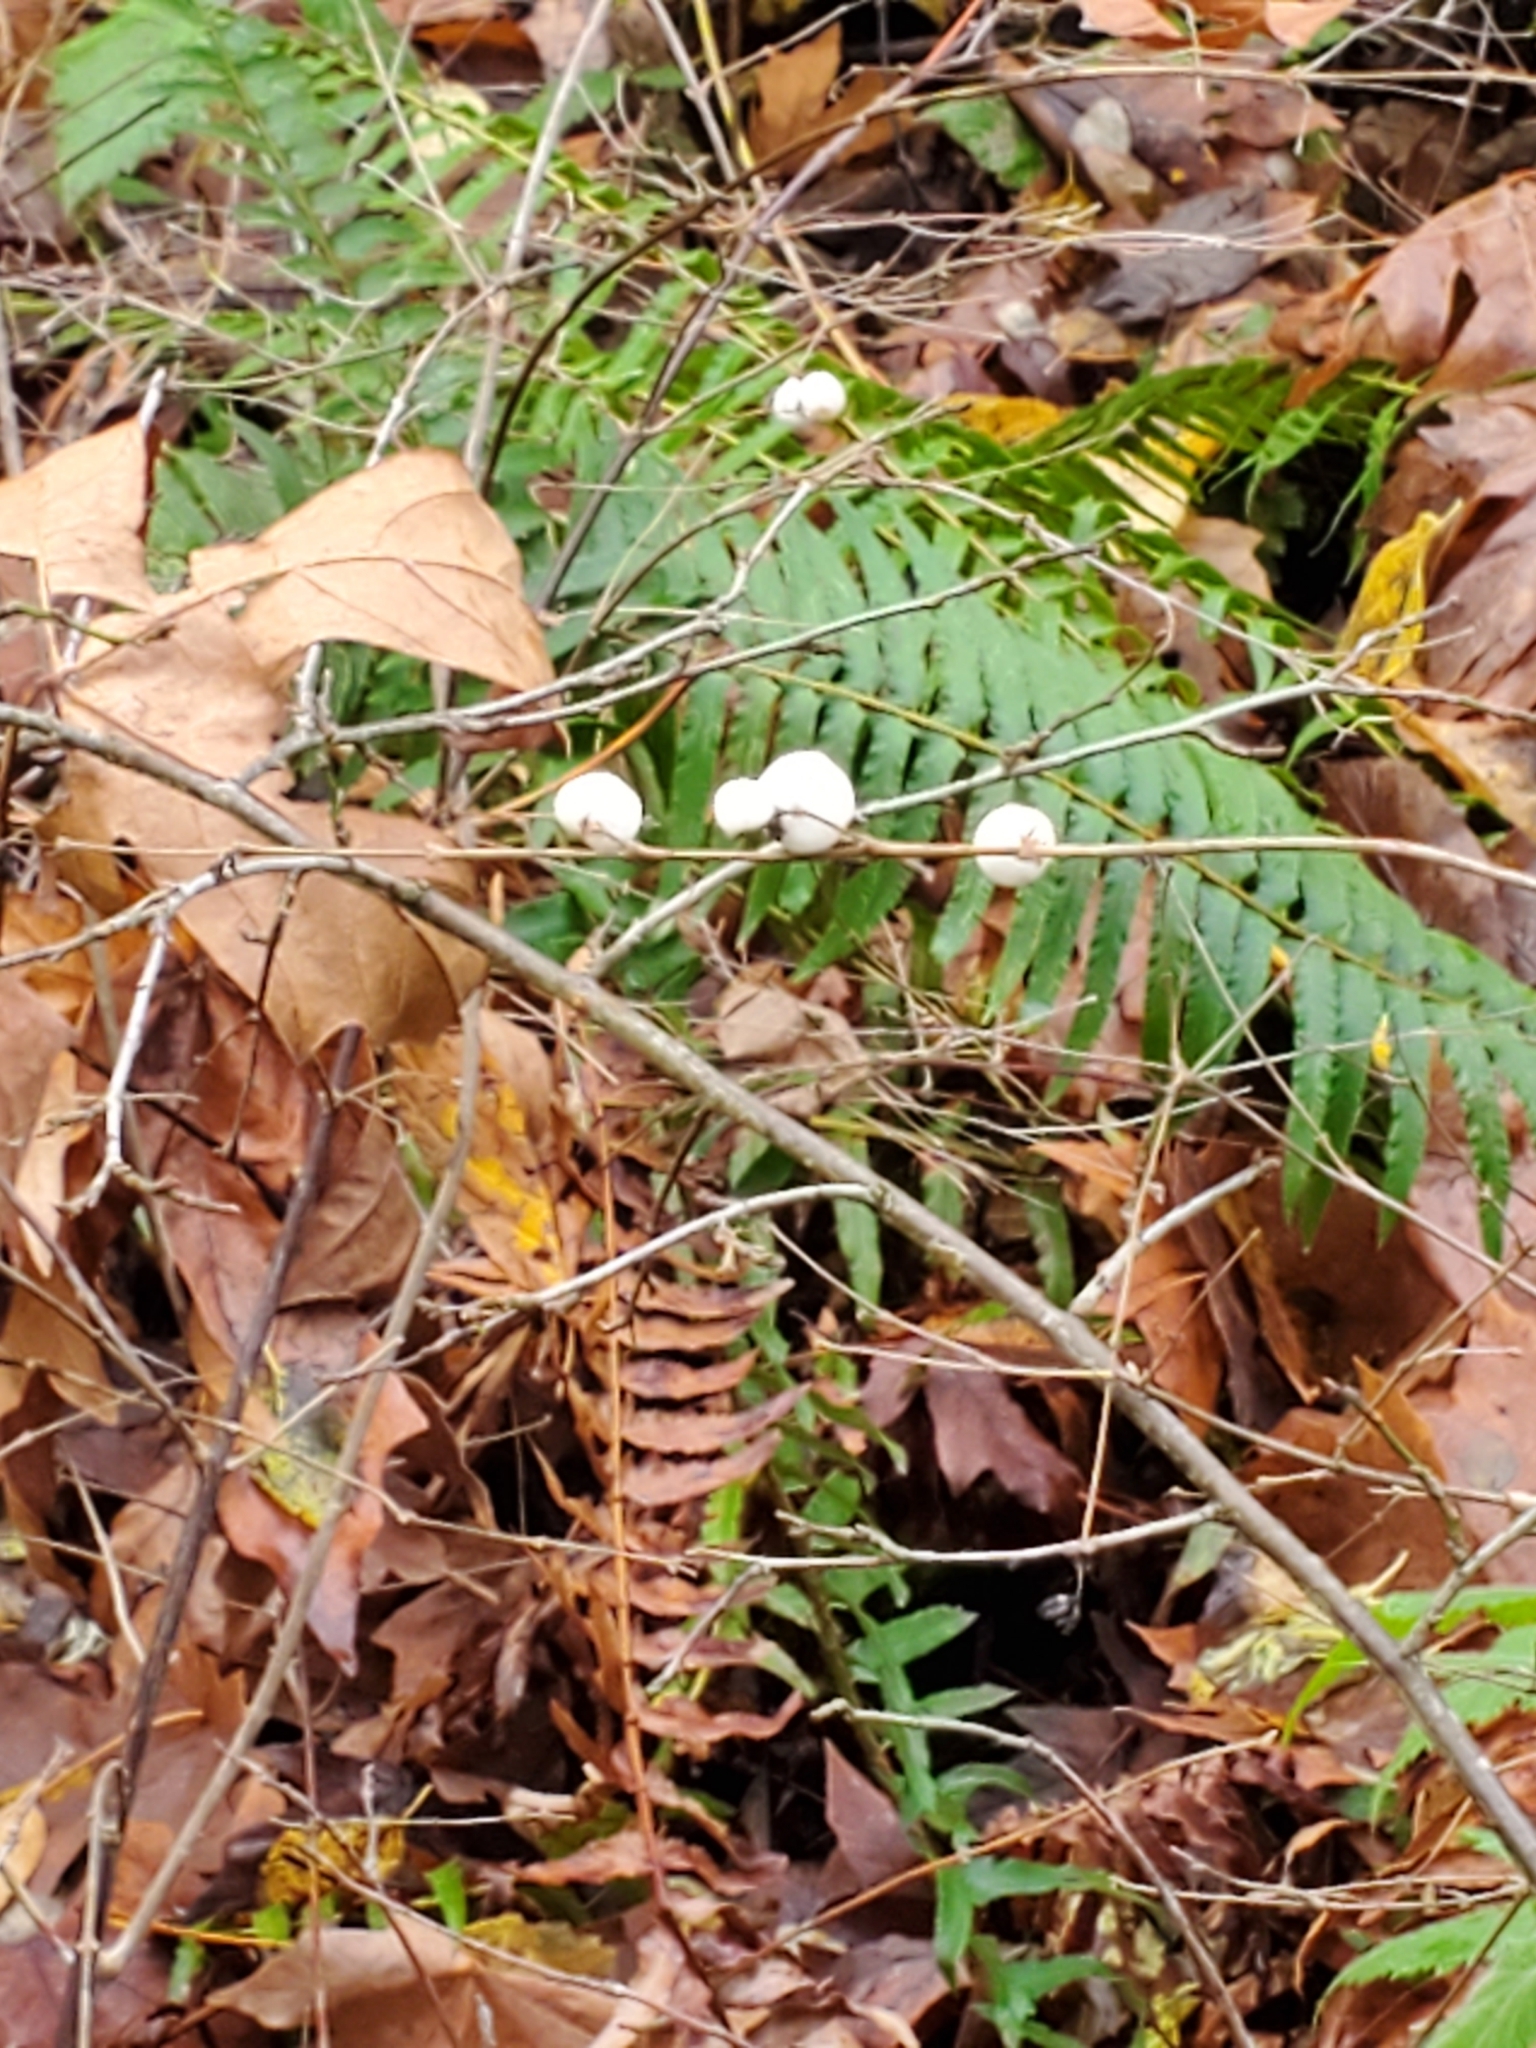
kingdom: Plantae
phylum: Tracheophyta
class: Magnoliopsida
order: Dipsacales
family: Caprifoliaceae
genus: Symphoricarpos
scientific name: Symphoricarpos albus
